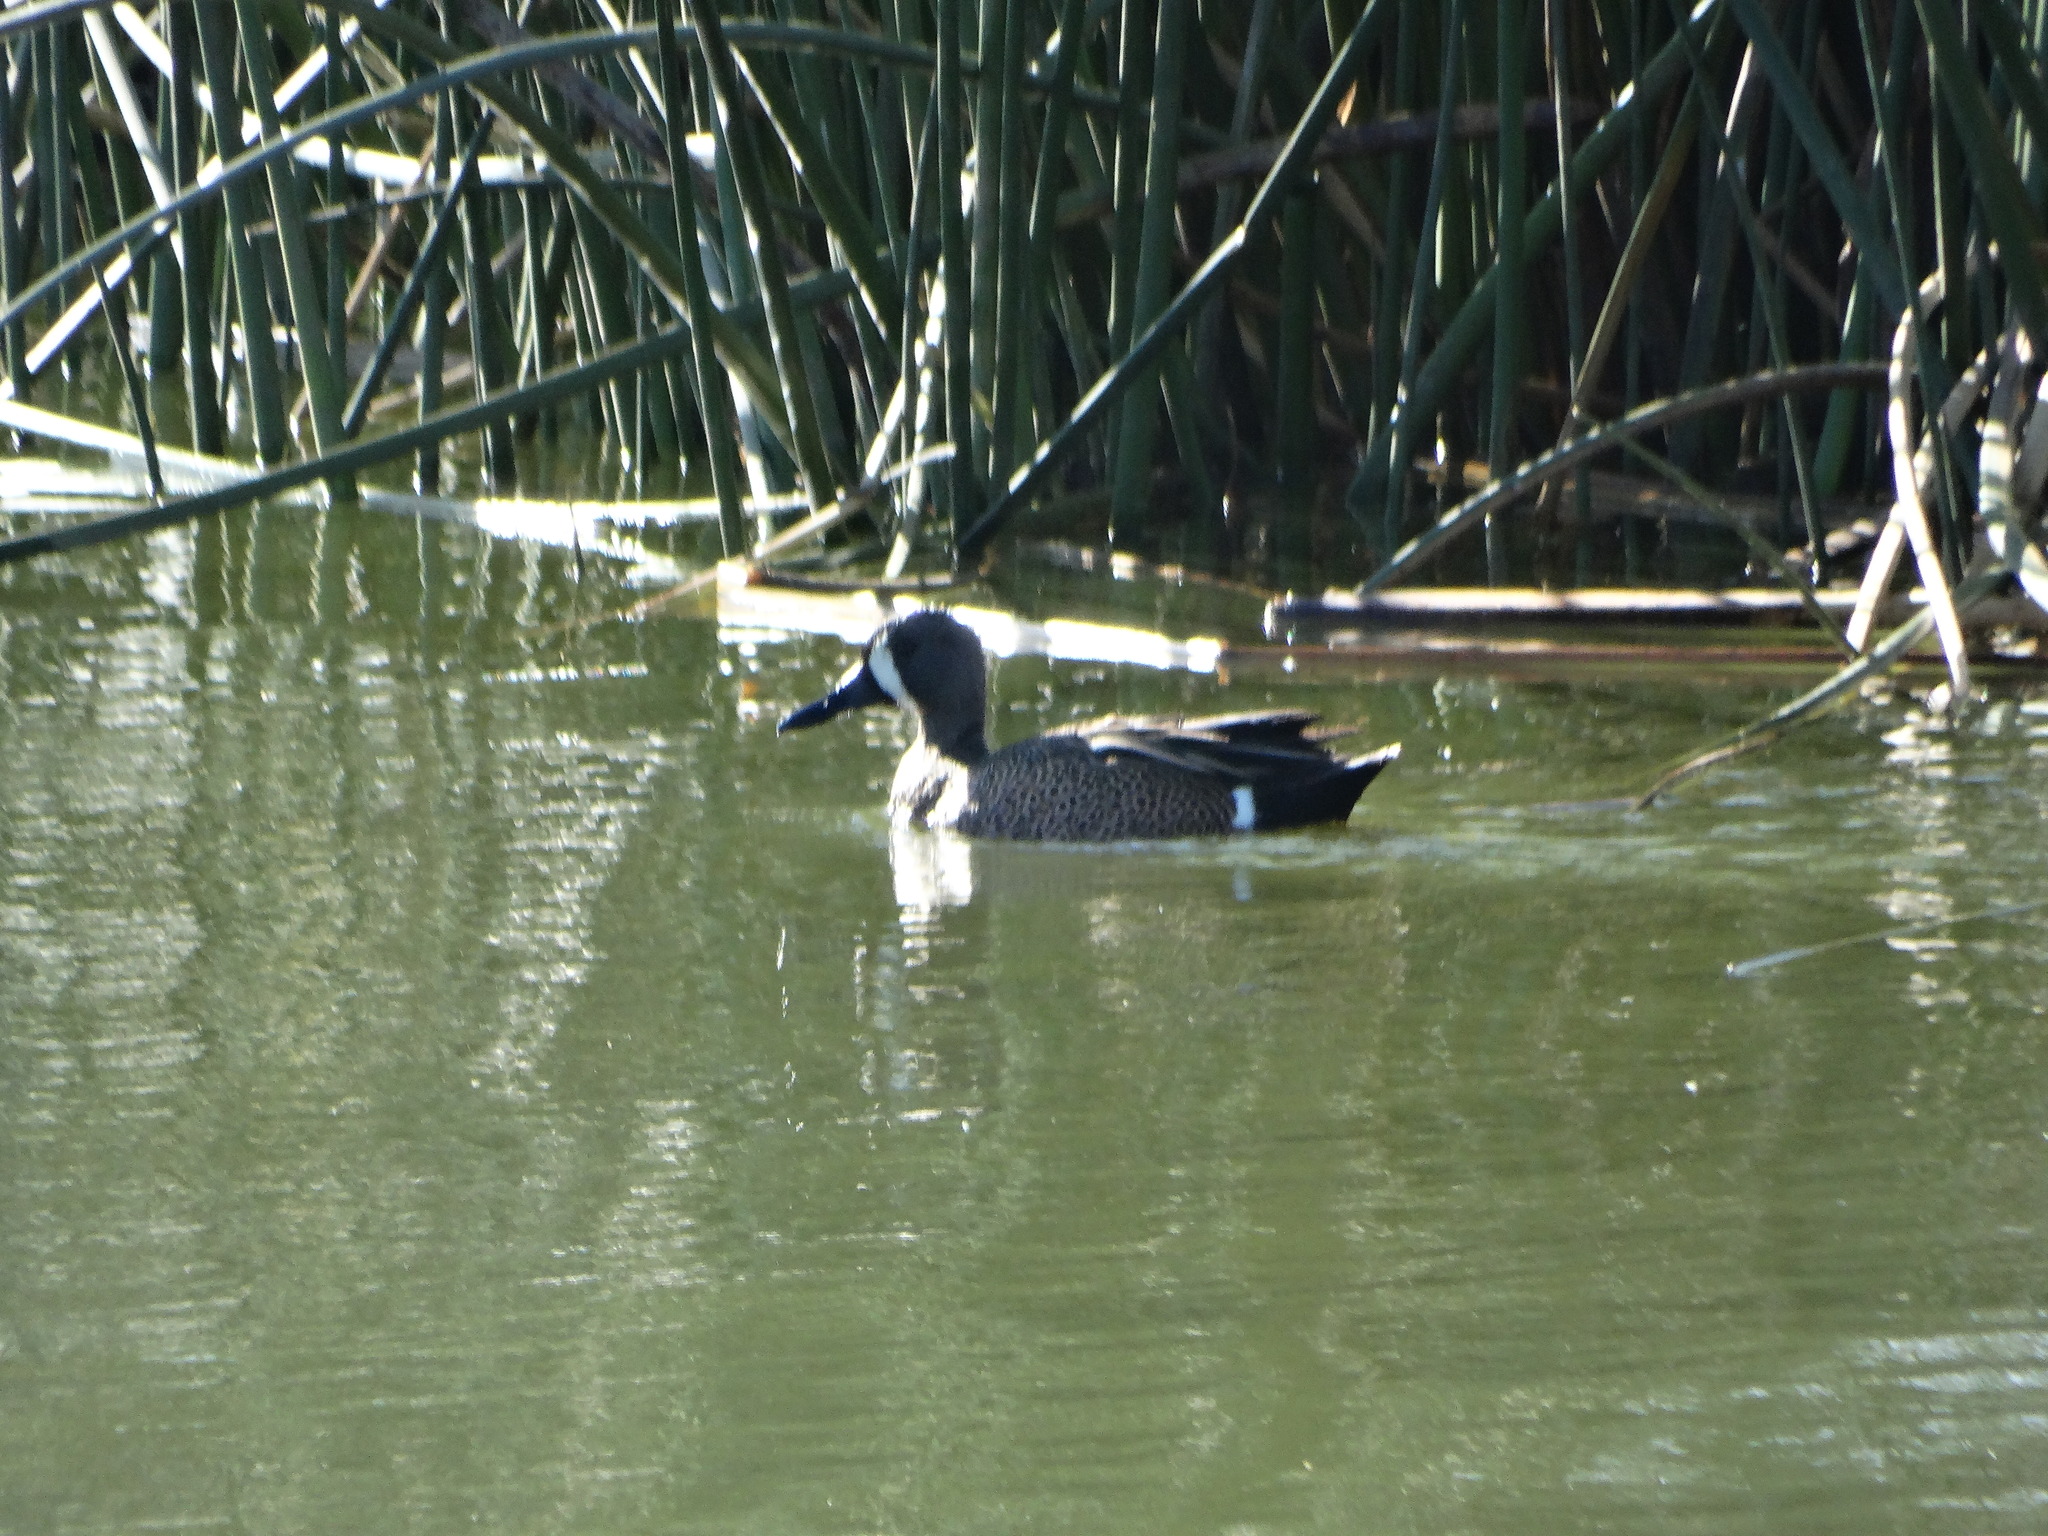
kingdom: Animalia
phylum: Chordata
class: Aves
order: Anseriformes
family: Anatidae
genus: Spatula
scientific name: Spatula discors
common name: Blue-winged teal
